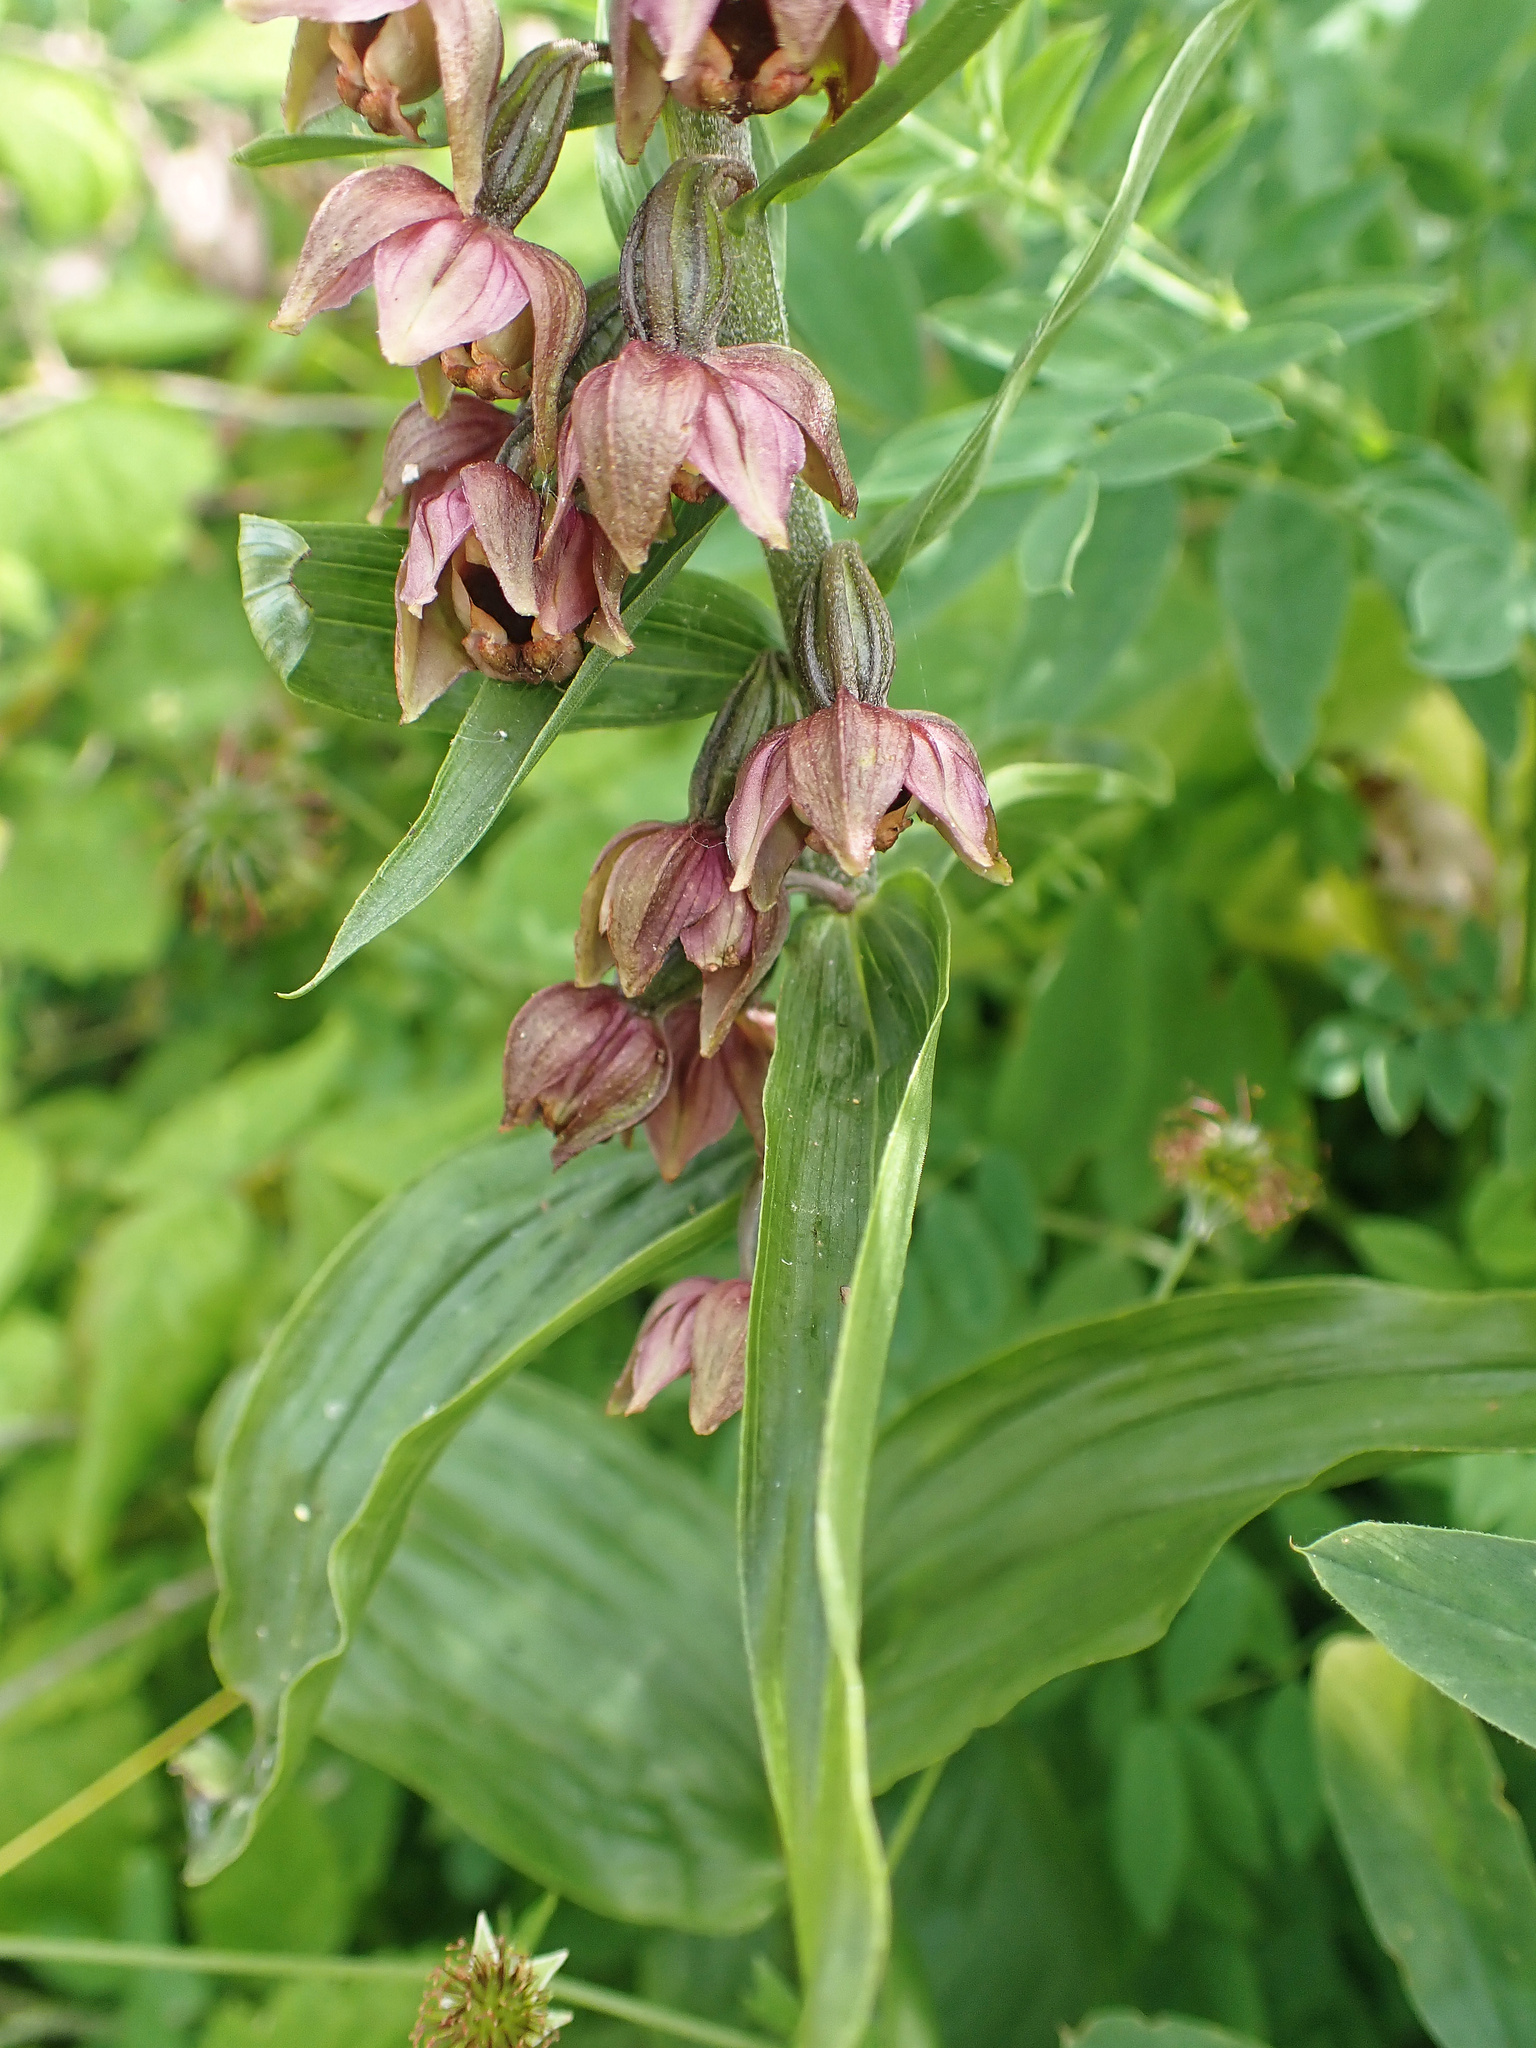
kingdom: Plantae
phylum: Tracheophyta
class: Liliopsida
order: Asparagales
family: Orchidaceae
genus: Epipactis
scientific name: Epipactis helleborine
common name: Broad-leaved helleborine
